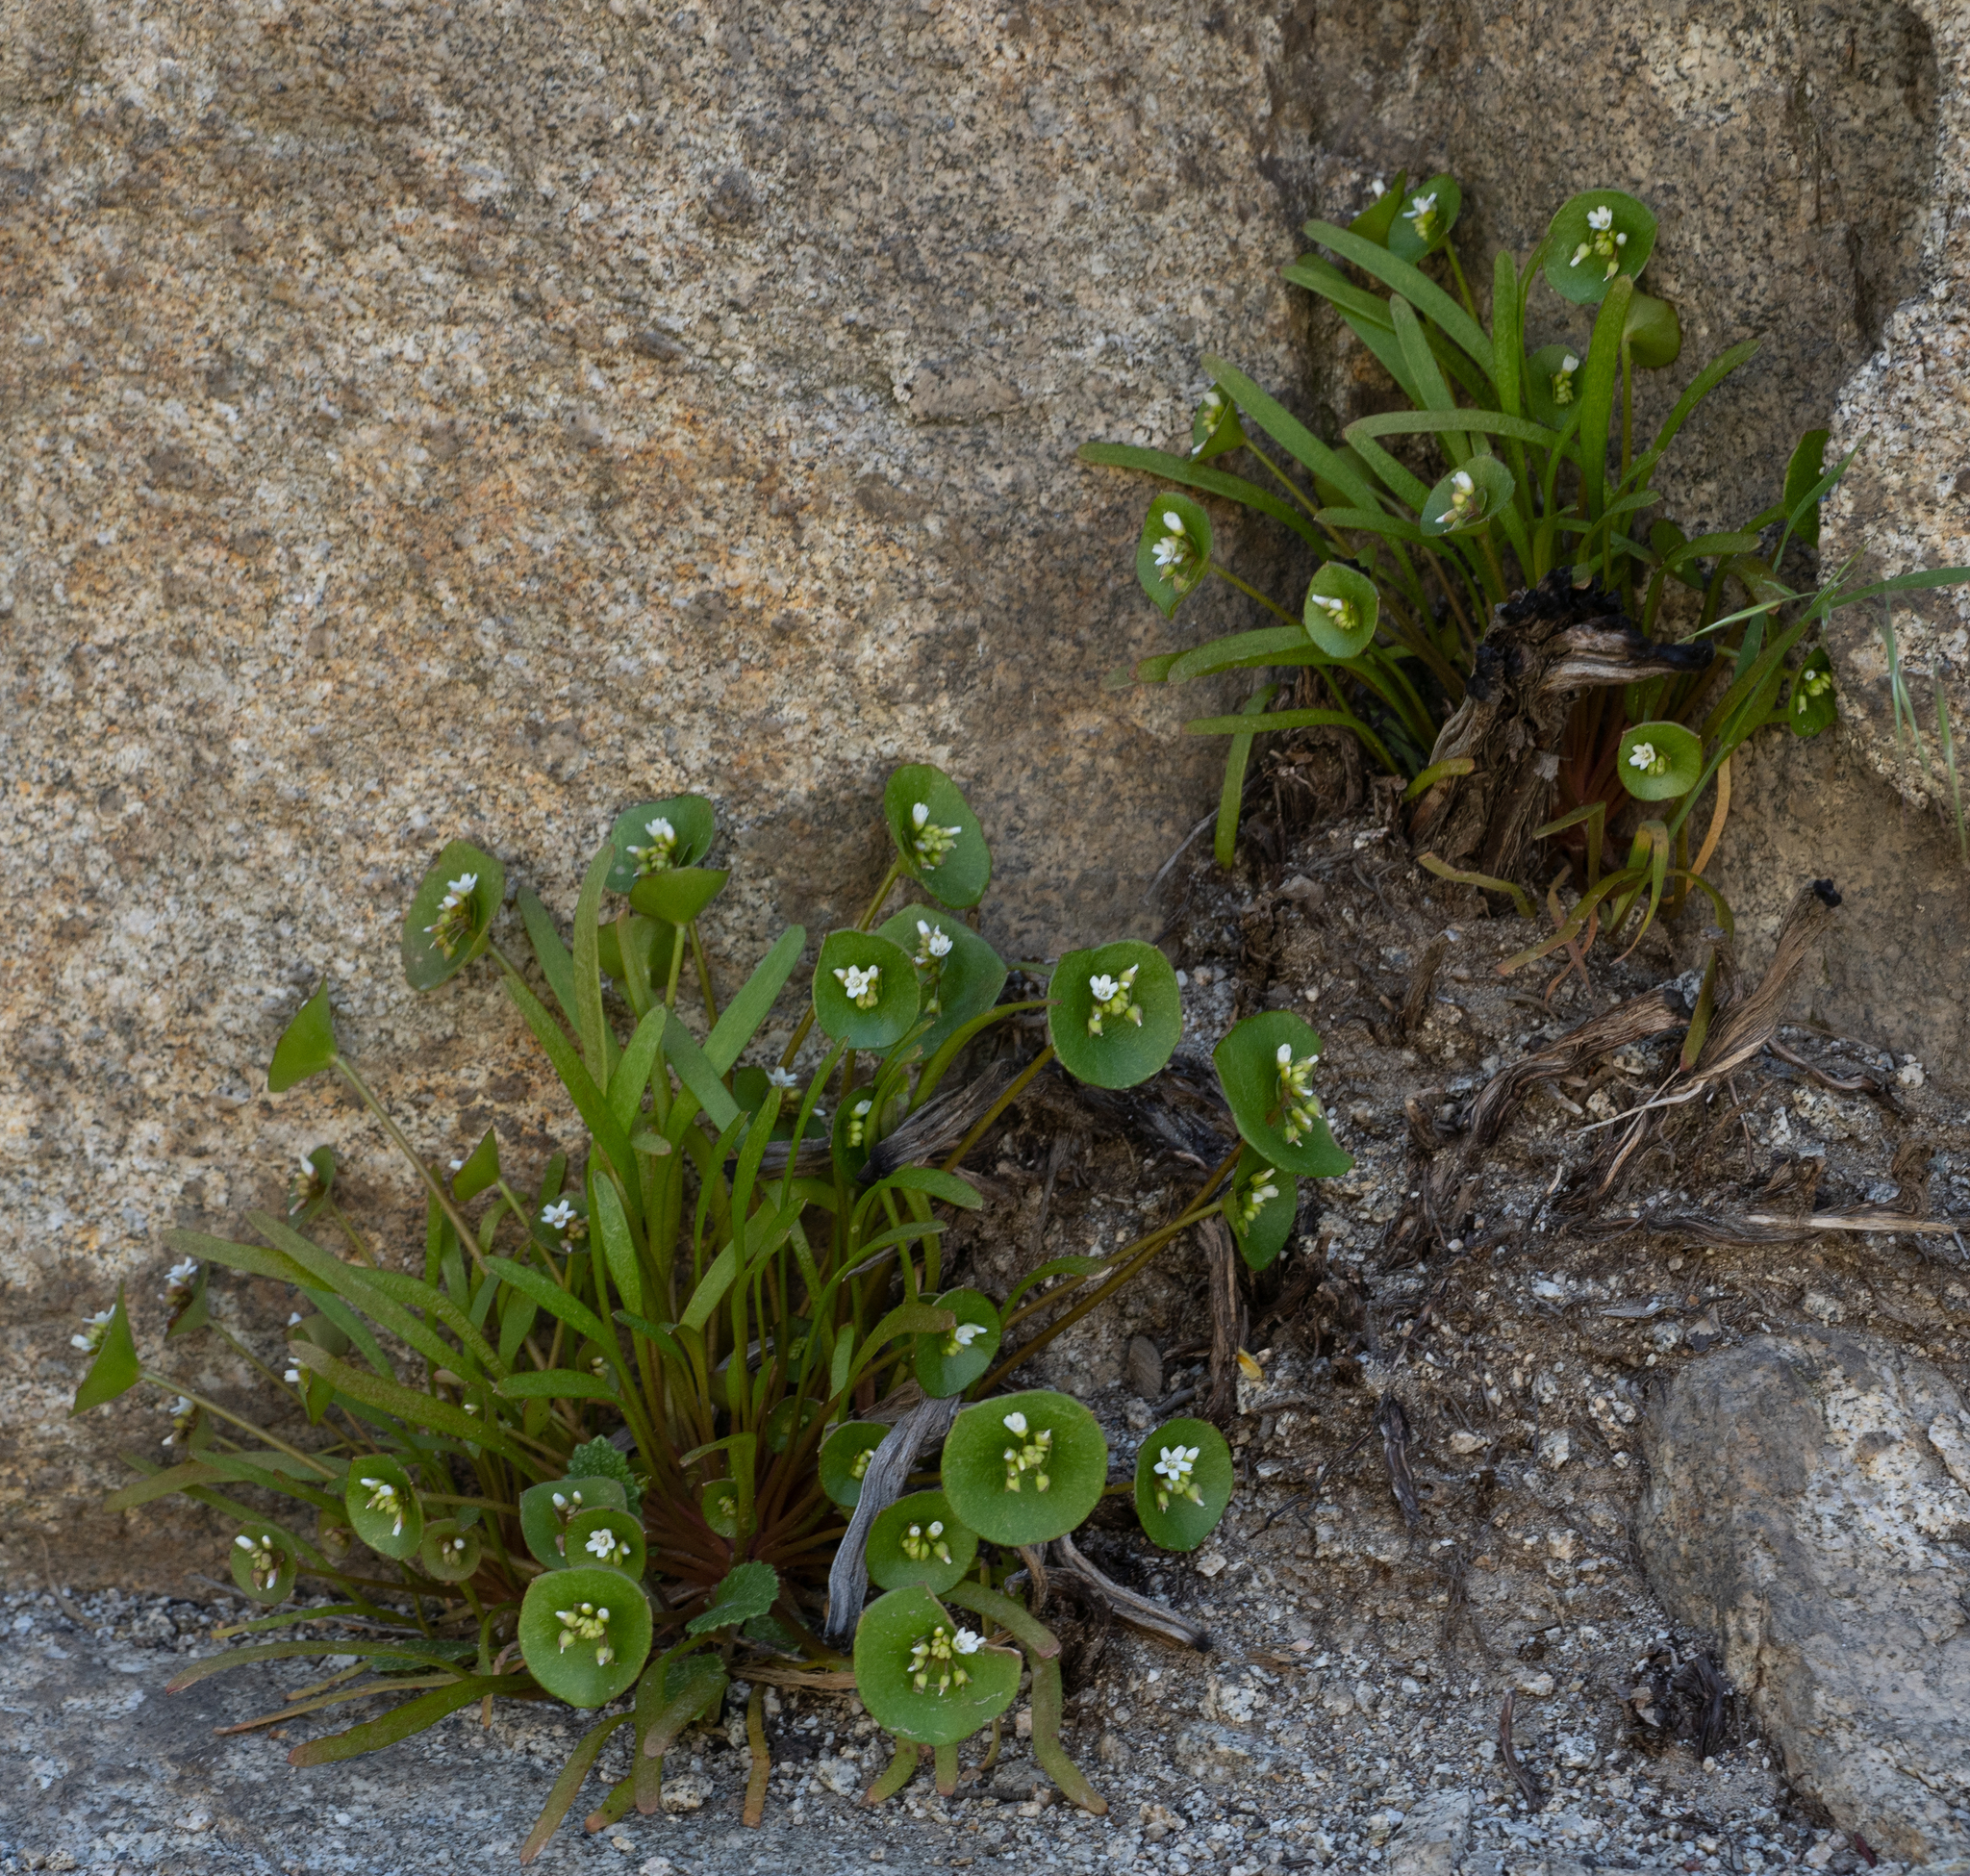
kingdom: Plantae
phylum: Tracheophyta
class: Magnoliopsida
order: Caryophyllales
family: Montiaceae
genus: Claytonia
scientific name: Claytonia perfoliata
